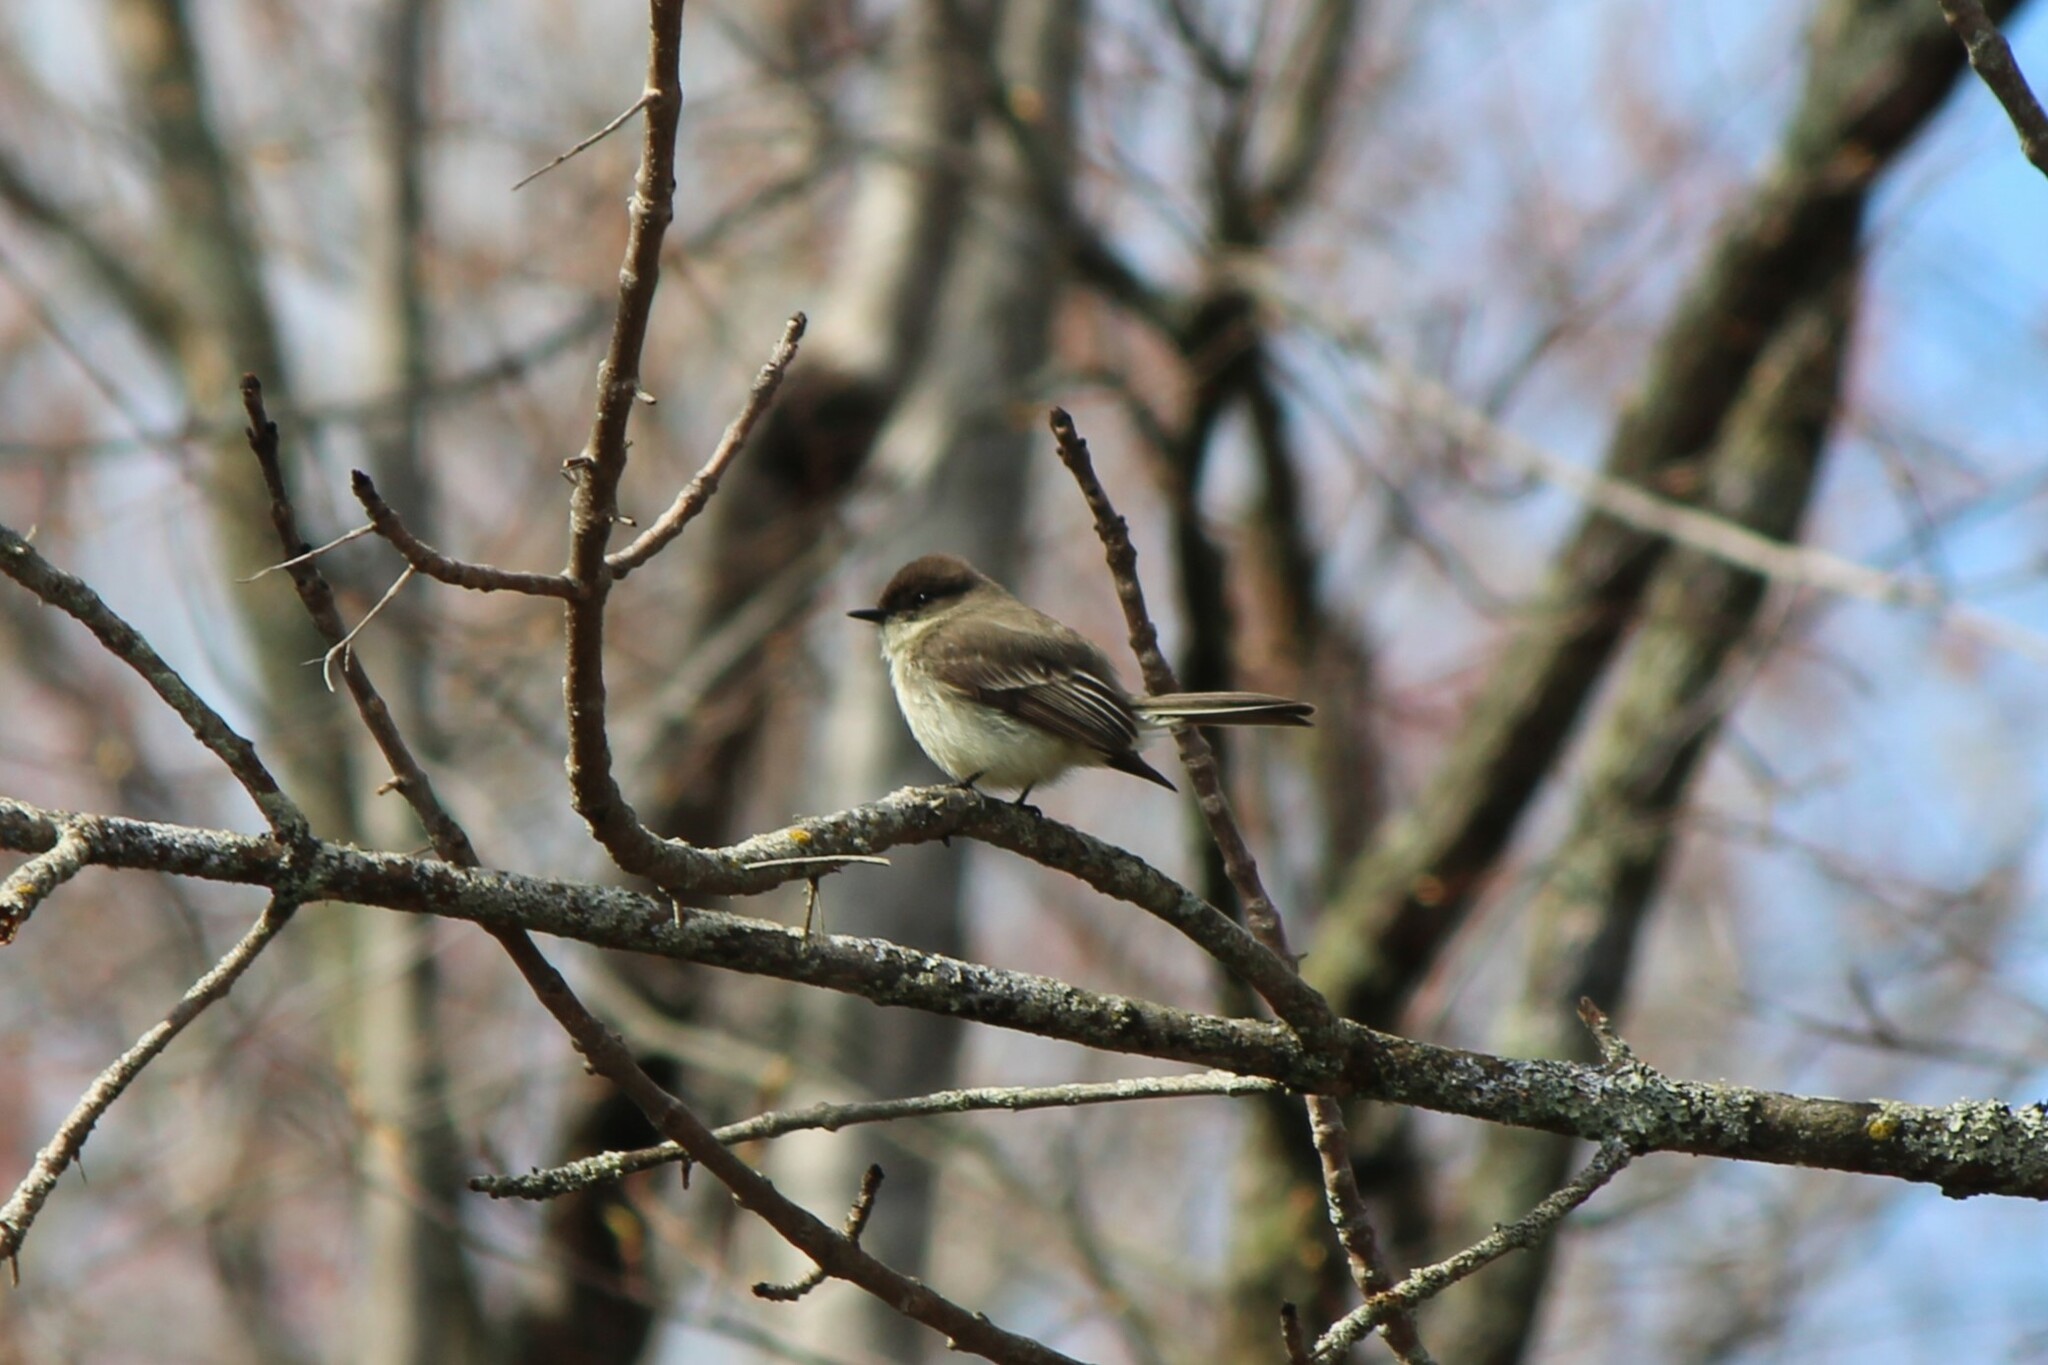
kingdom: Animalia
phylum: Chordata
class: Aves
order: Passeriformes
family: Tyrannidae
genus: Sayornis
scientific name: Sayornis phoebe
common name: Eastern phoebe
